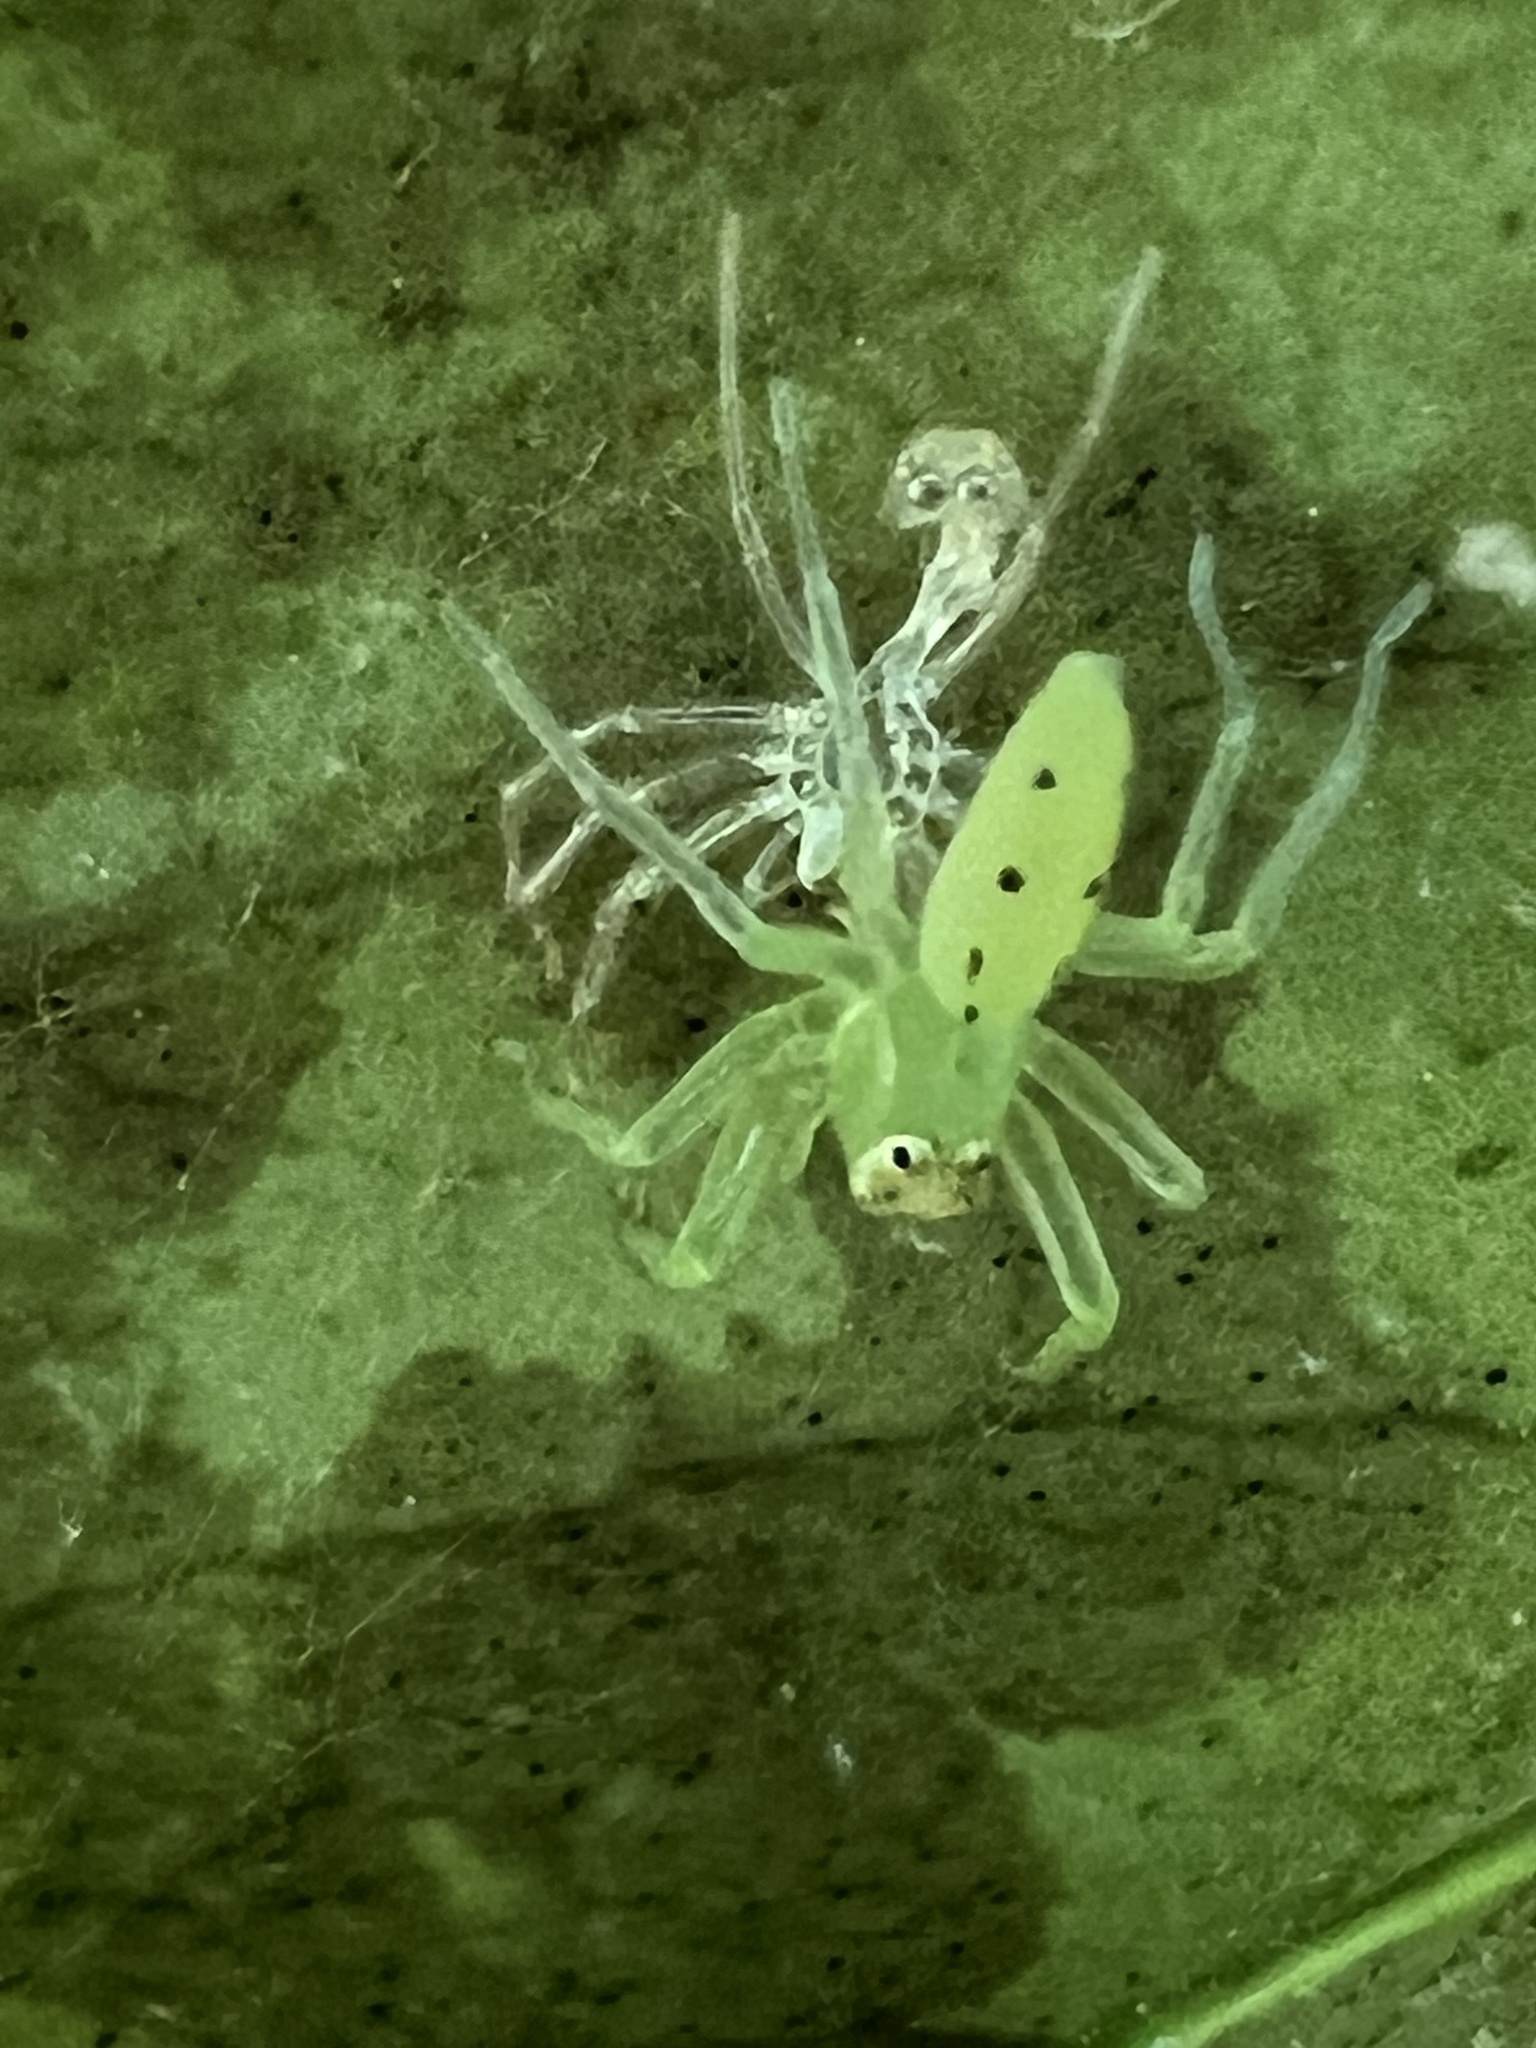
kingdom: Animalia
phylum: Arthropoda
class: Arachnida
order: Araneae
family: Salticidae
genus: Lyssomanes
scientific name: Lyssomanes viridis
